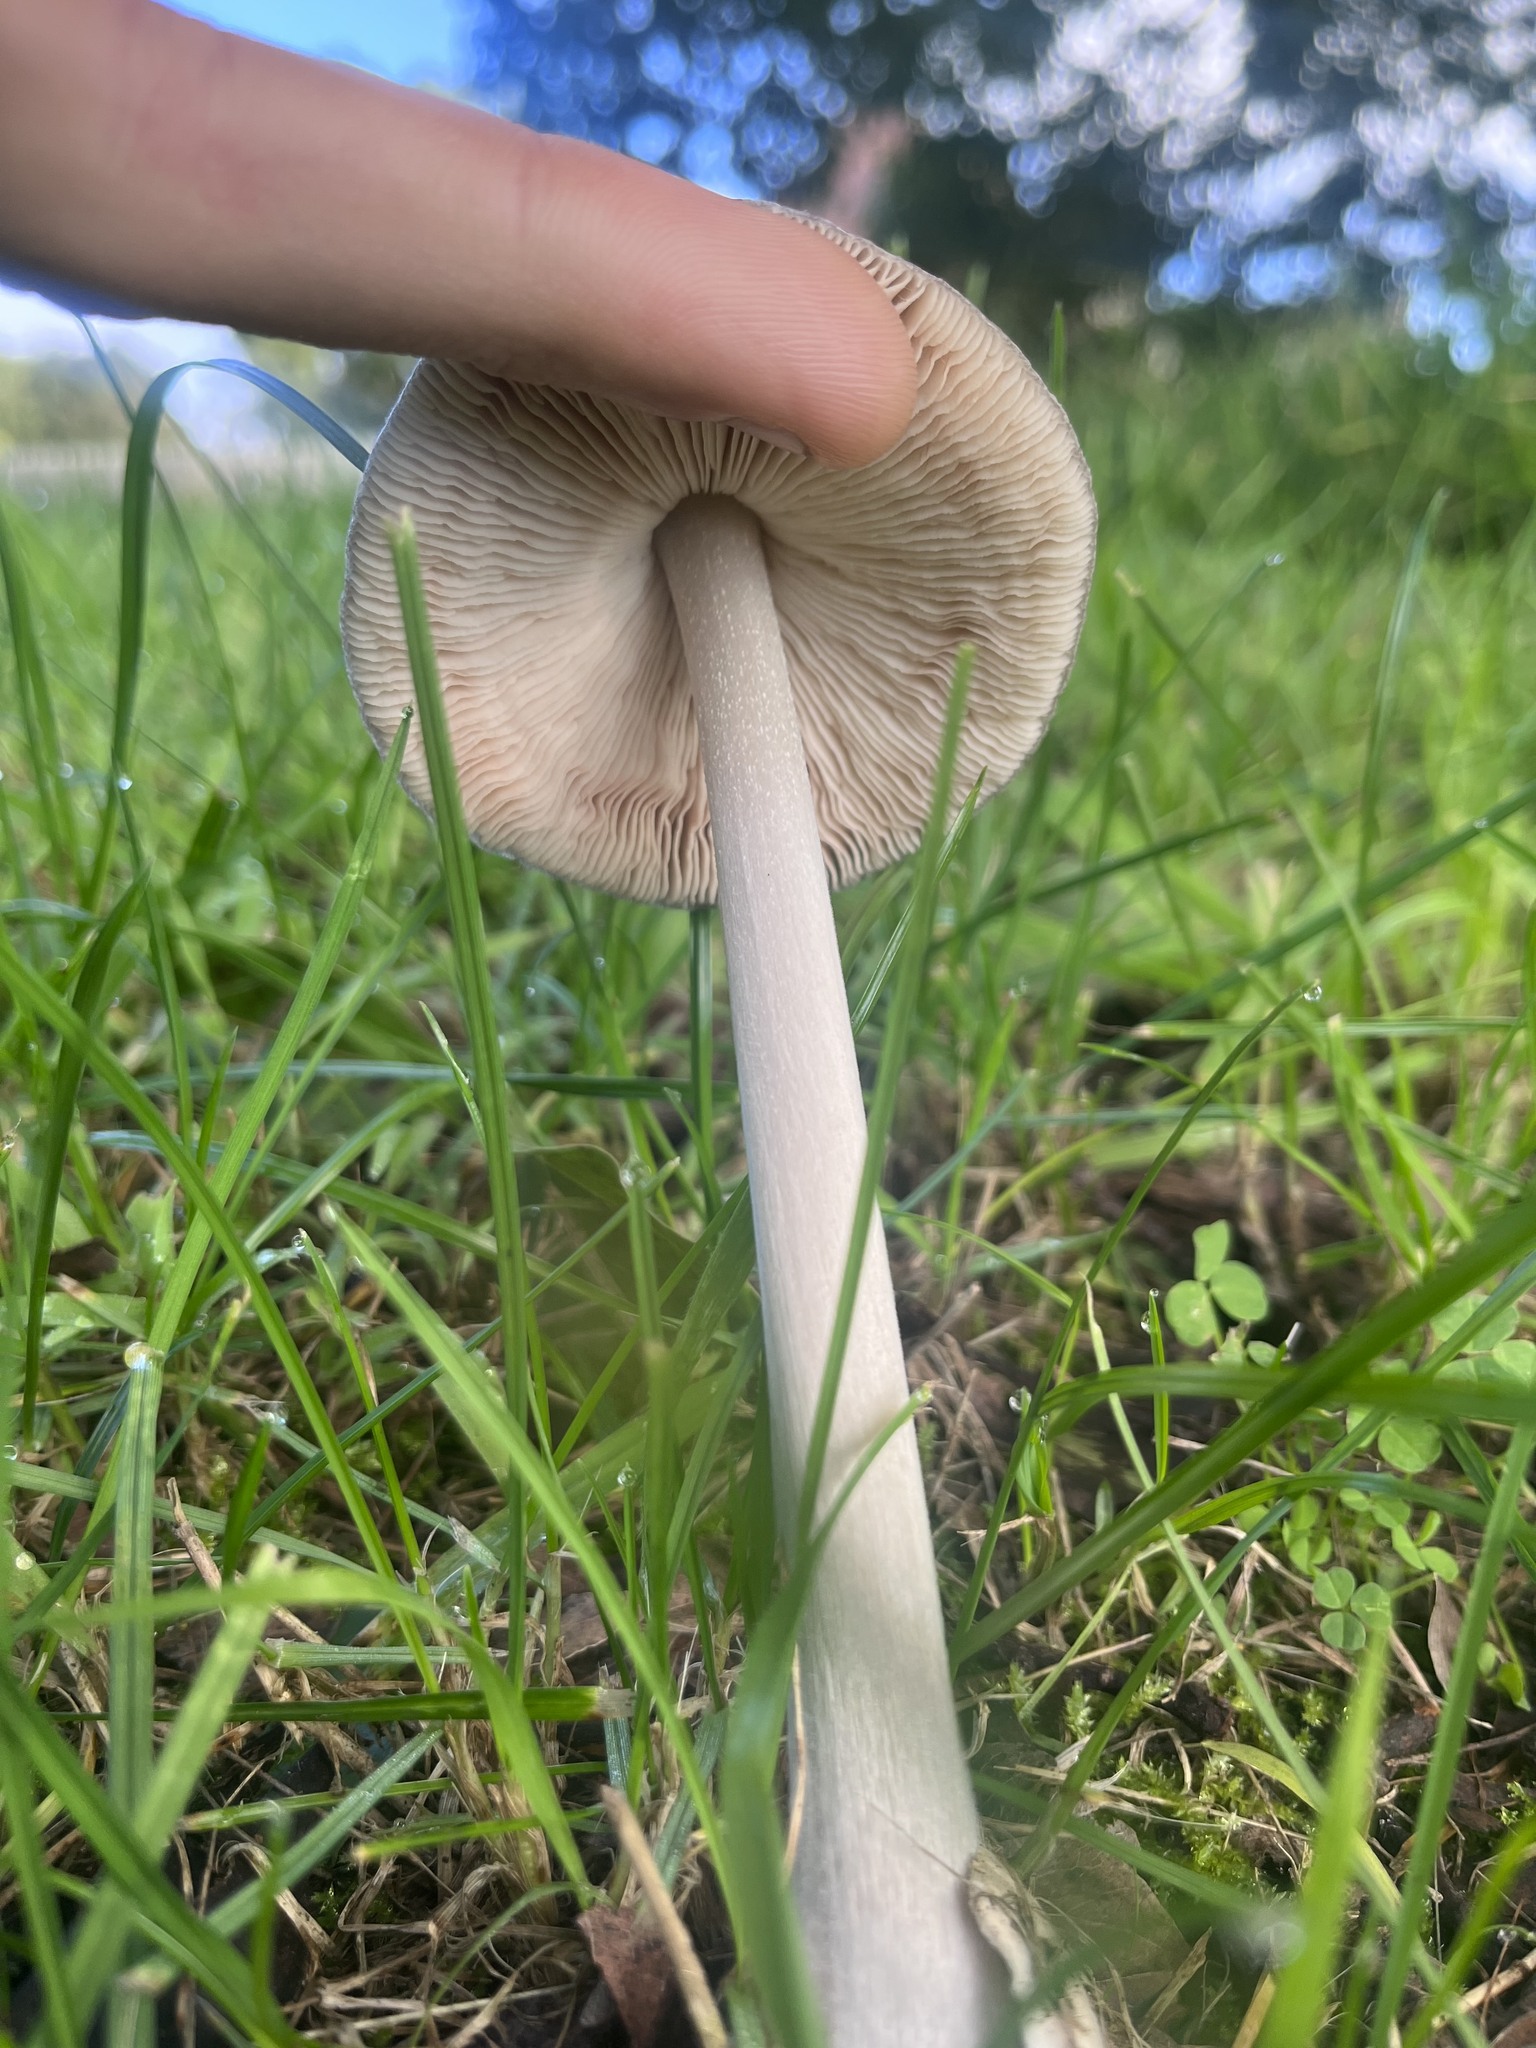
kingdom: Fungi
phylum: Basidiomycota
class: Agaricomycetes
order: Agaricales
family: Pluteaceae
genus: Volvopluteus
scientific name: Volvopluteus gloiocephalus
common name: Stubble rosegill
